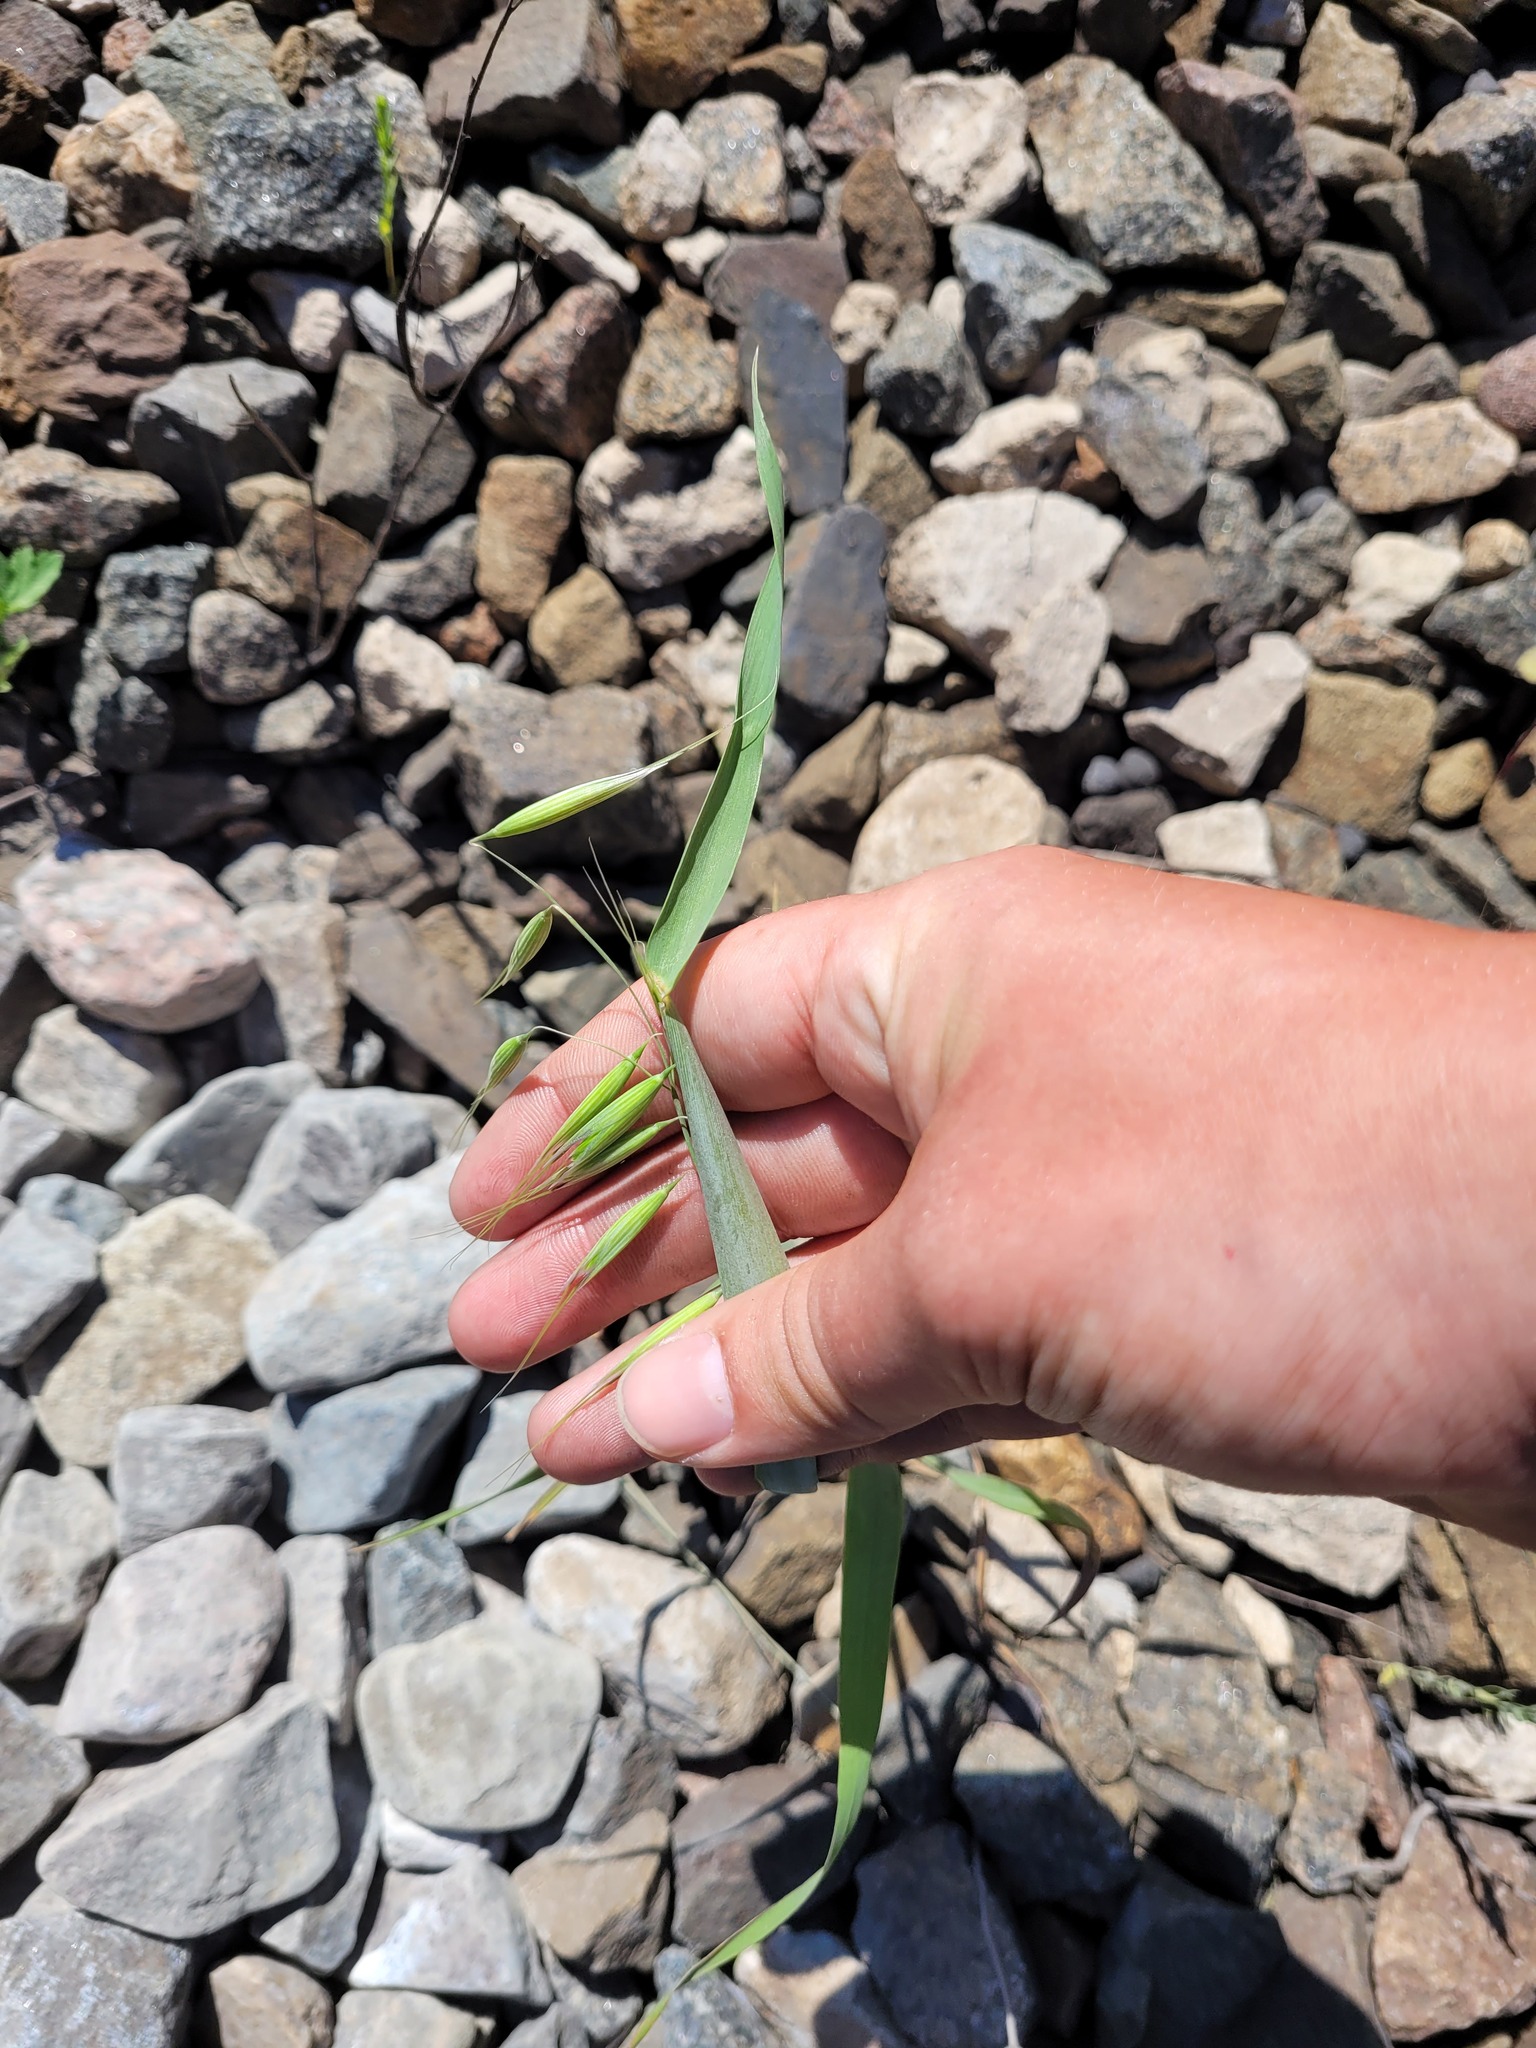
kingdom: Plantae
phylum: Tracheophyta
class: Liliopsida
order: Poales
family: Poaceae
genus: Avena
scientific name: Avena fatua
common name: Wild oat
